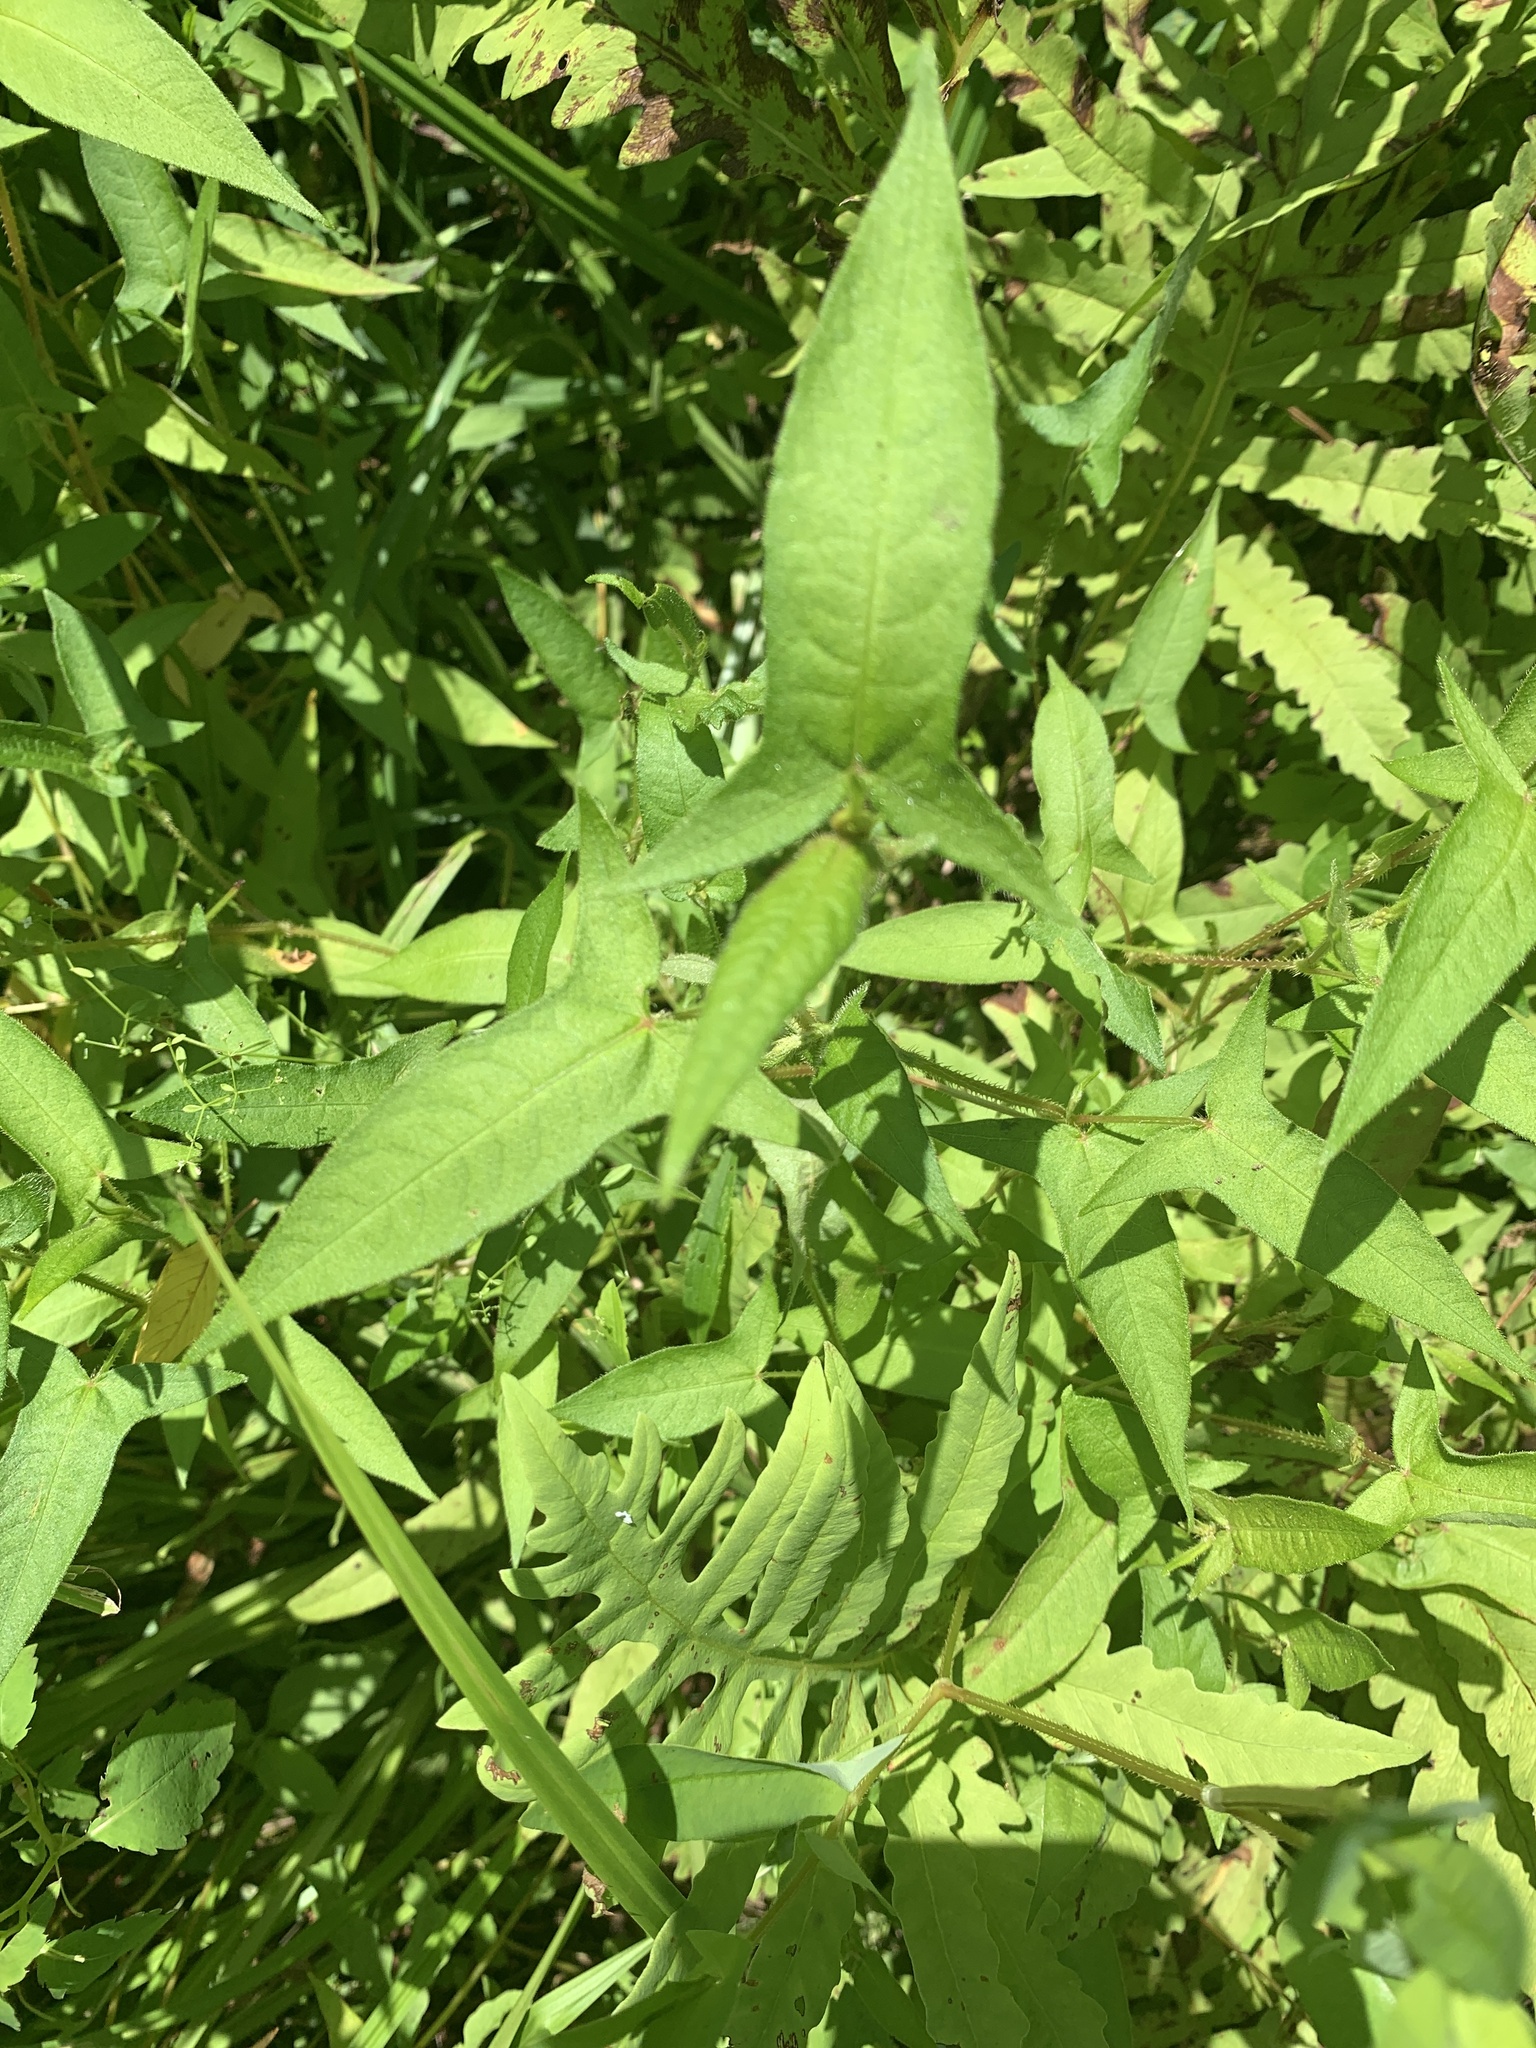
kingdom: Plantae
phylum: Tracheophyta
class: Magnoliopsida
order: Caryophyllales
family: Polygonaceae
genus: Persicaria
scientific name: Persicaria arifolia
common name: Halberd-leaved tear-thumb
